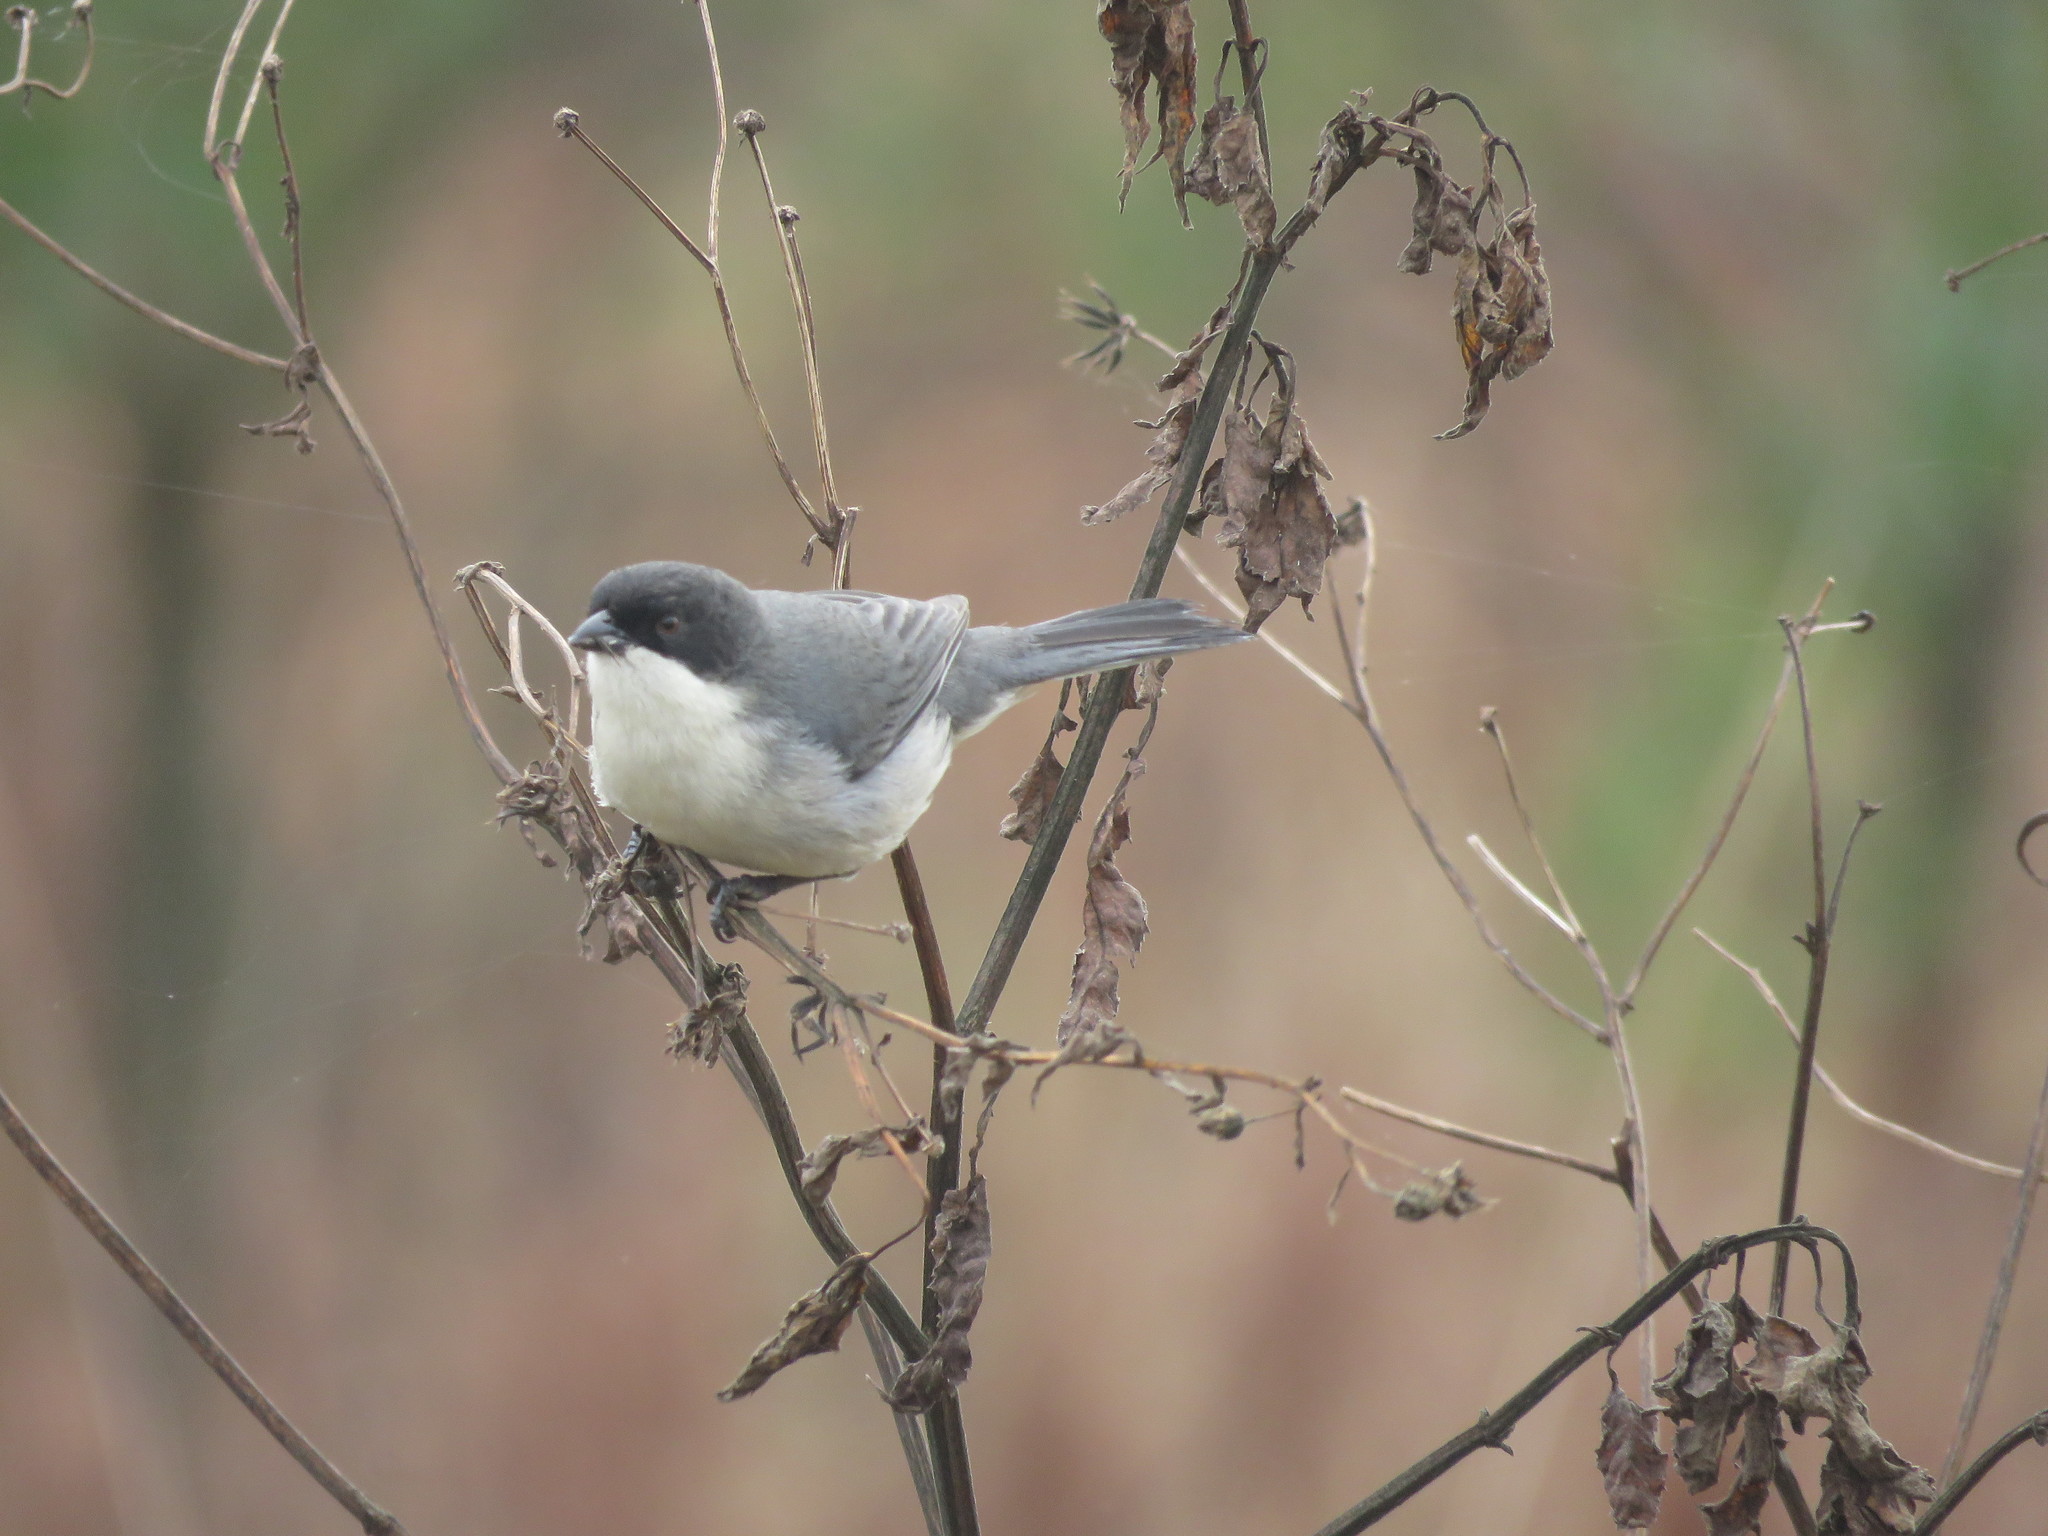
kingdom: Animalia
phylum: Chordata
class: Aves
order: Passeriformes
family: Thraupidae
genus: Microspingus
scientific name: Microspingus melanoleucus
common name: Black-capped warbling-finch
